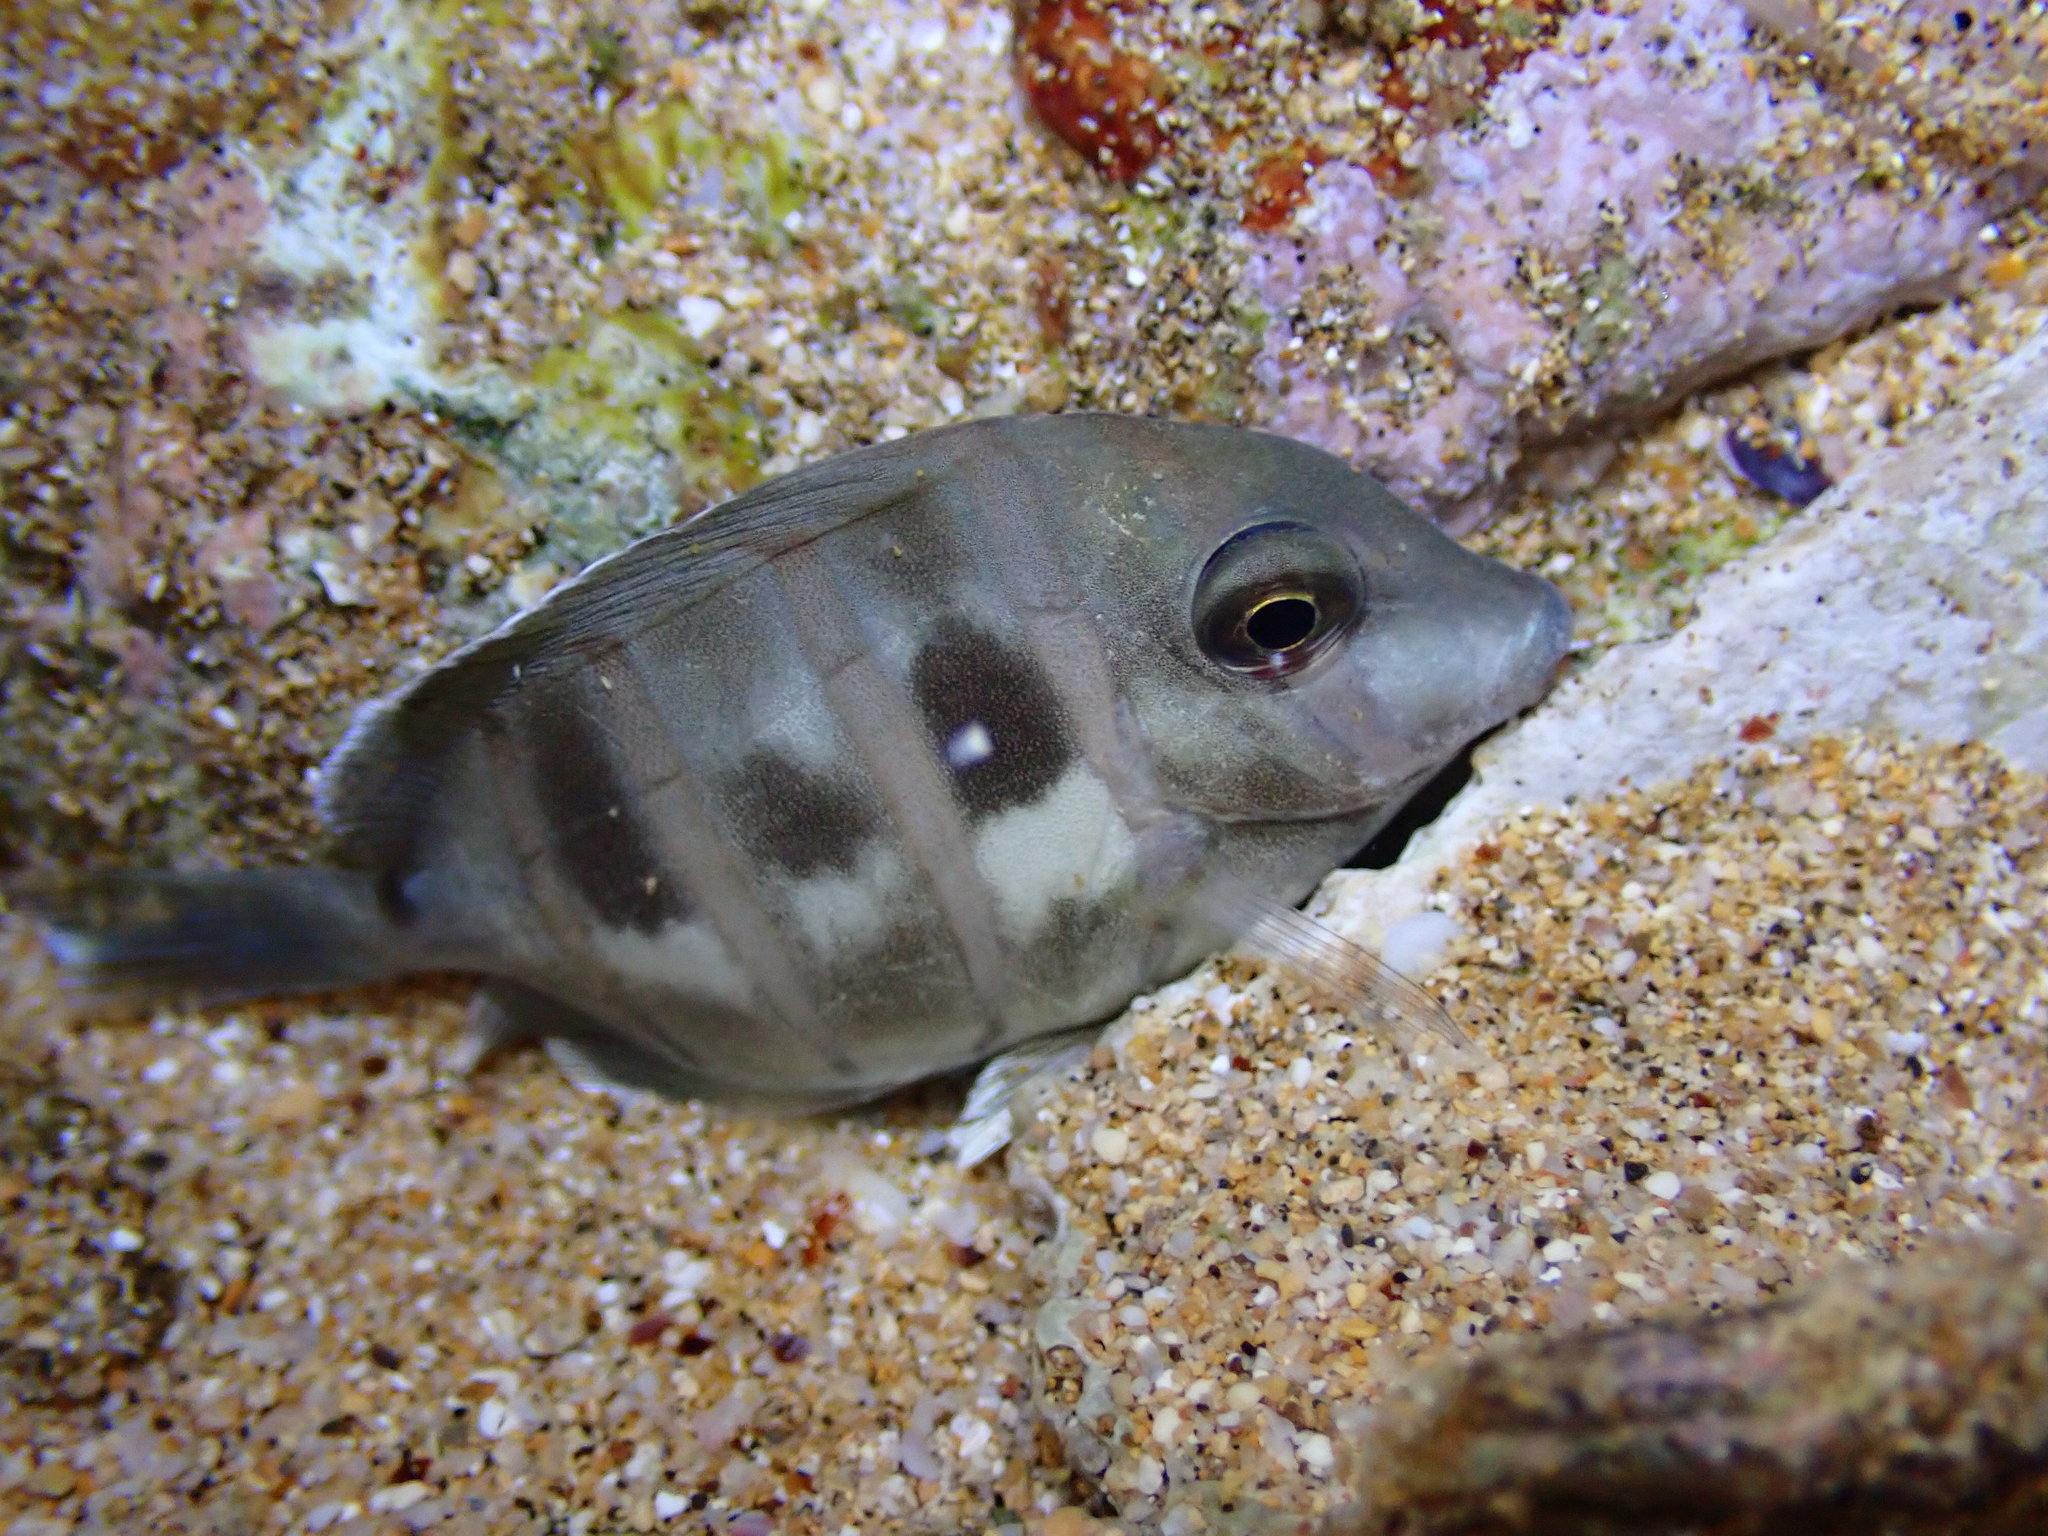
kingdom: Animalia
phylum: Chordata
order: Perciformes
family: Acanthuridae
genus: Acanthurus
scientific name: Acanthurus triostegus
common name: Convict surgeonfish
